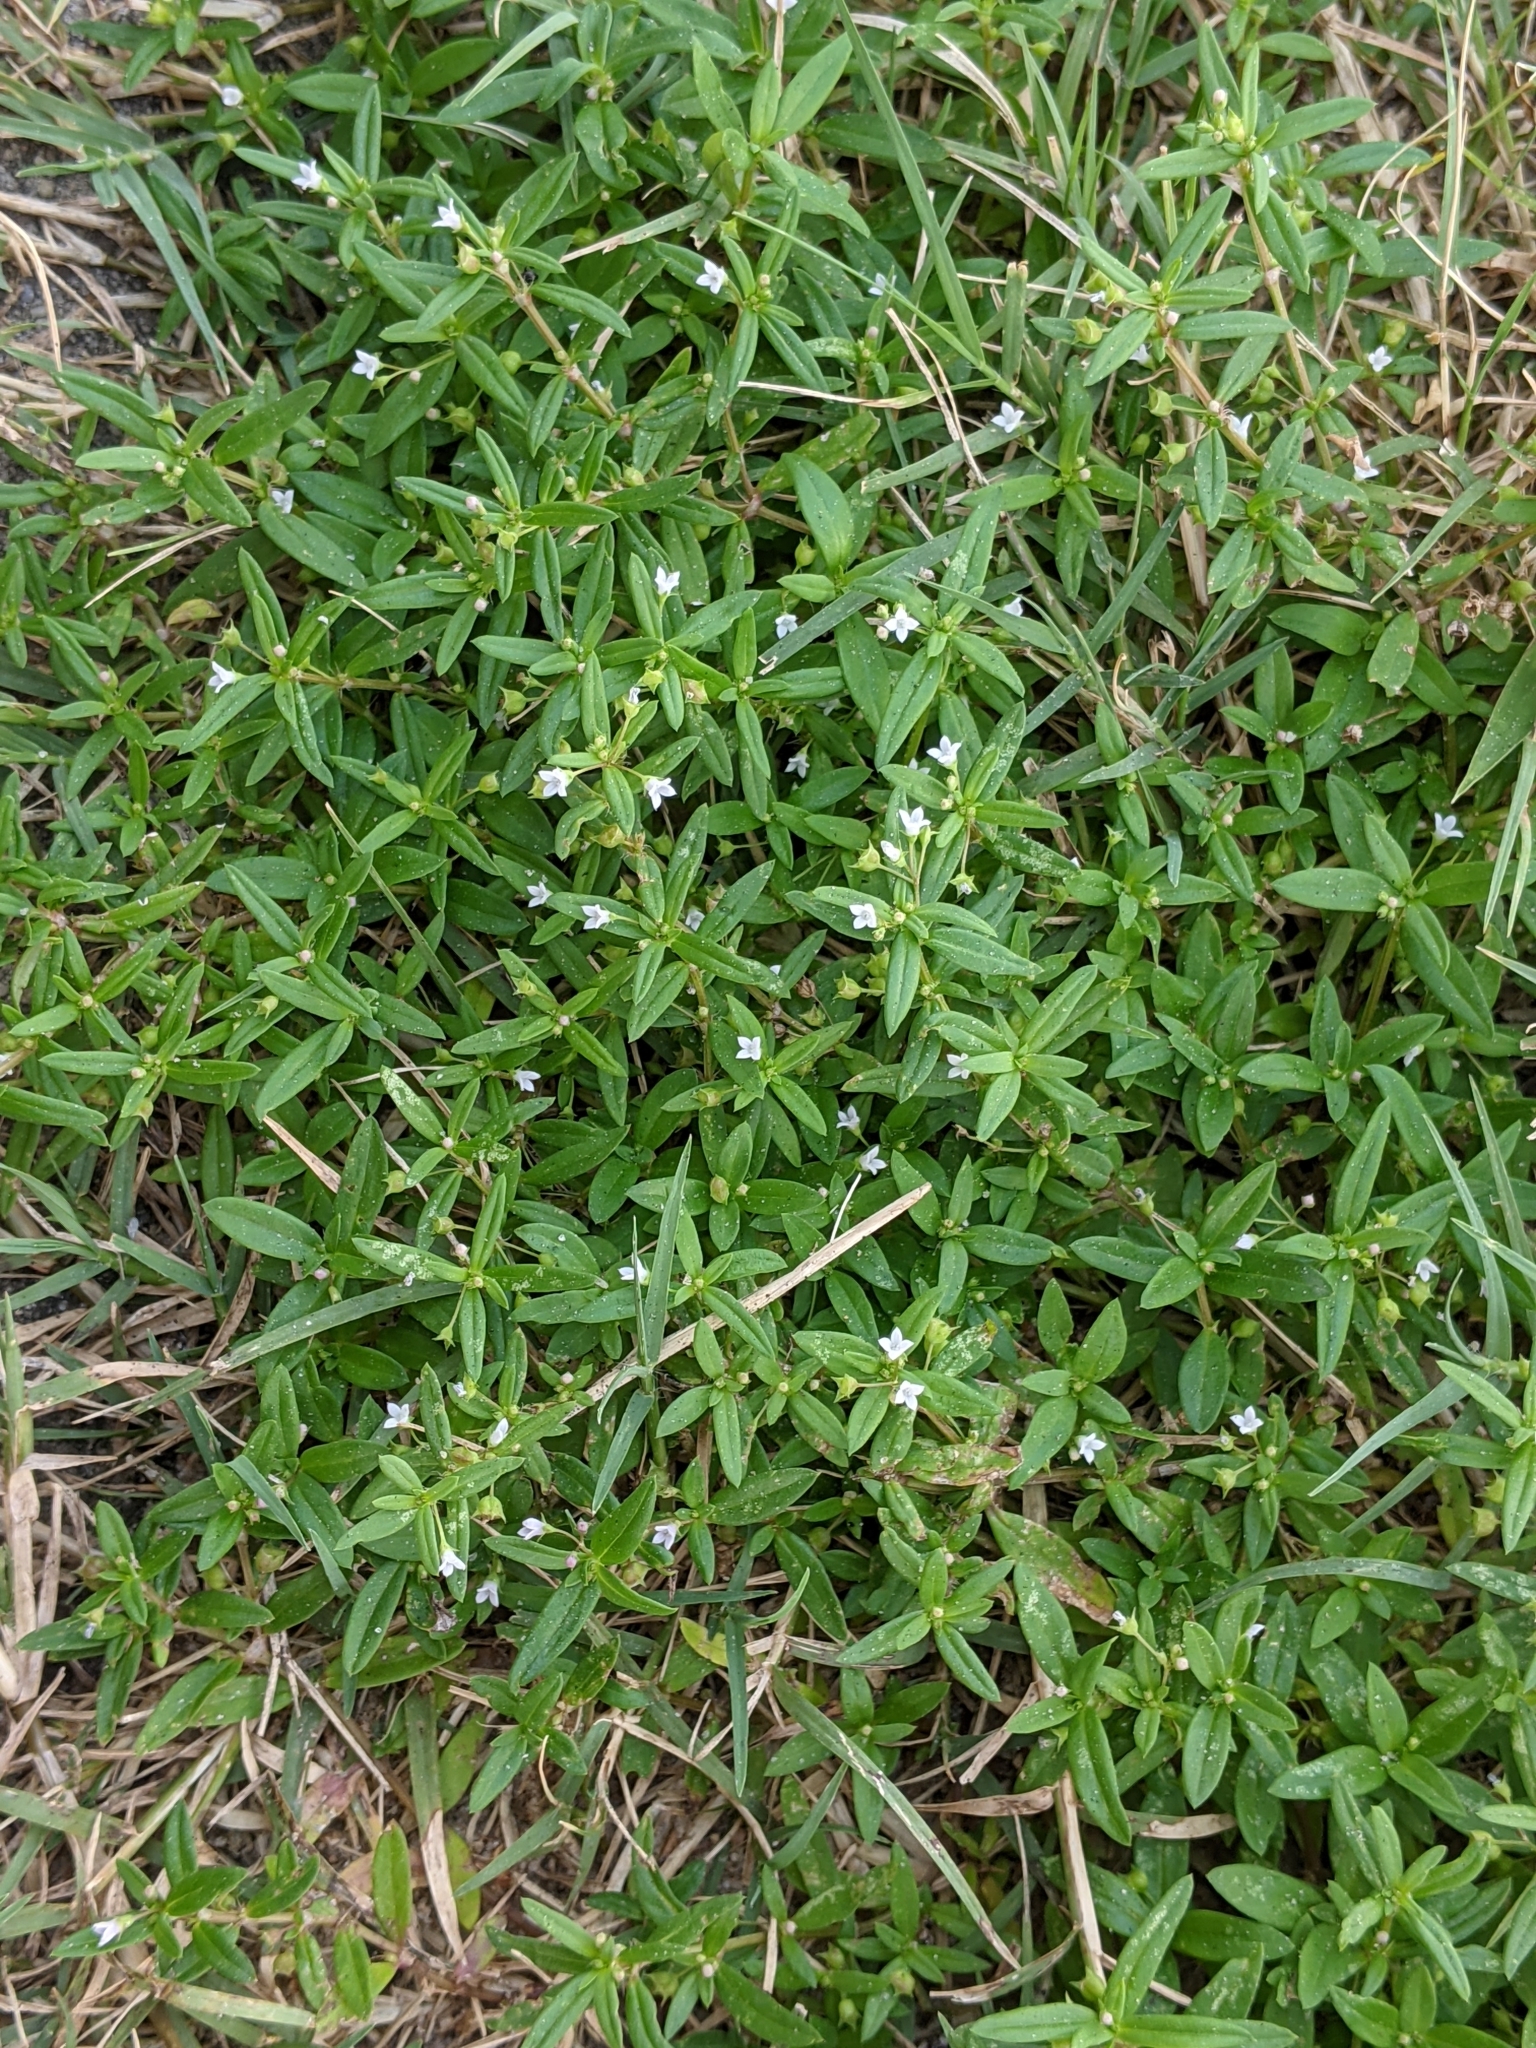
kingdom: Plantae
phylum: Tracheophyta
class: Magnoliopsida
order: Gentianales
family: Rubiaceae
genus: Oldenlandia
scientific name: Oldenlandia corymbosa
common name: Flat-top mille graines
